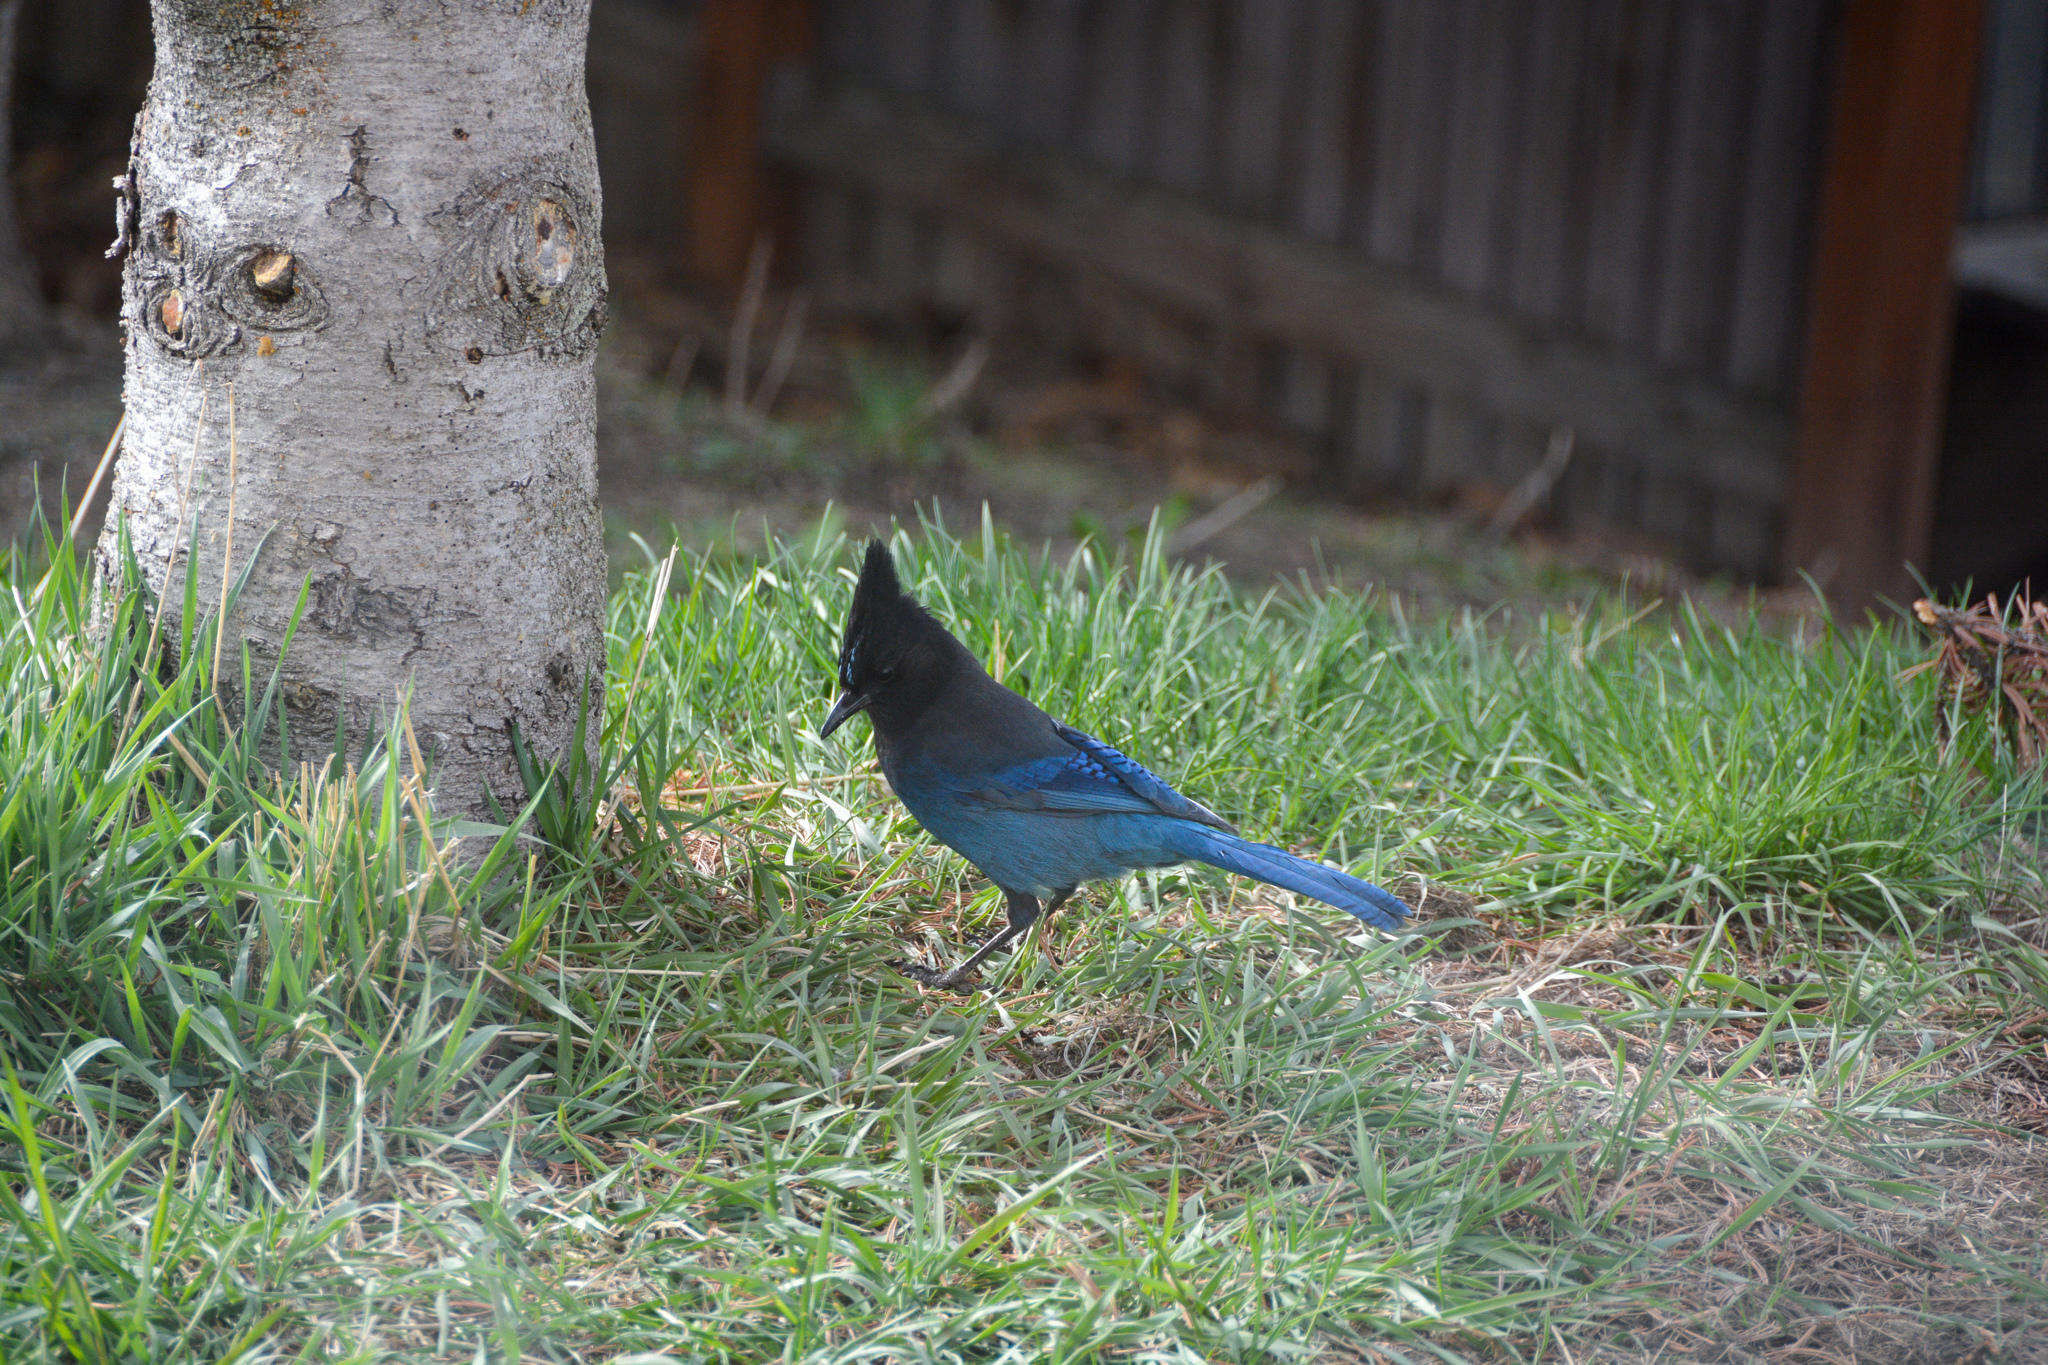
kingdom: Animalia
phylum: Chordata
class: Aves
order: Passeriformes
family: Corvidae
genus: Cyanocitta
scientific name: Cyanocitta stelleri
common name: Steller's jay
